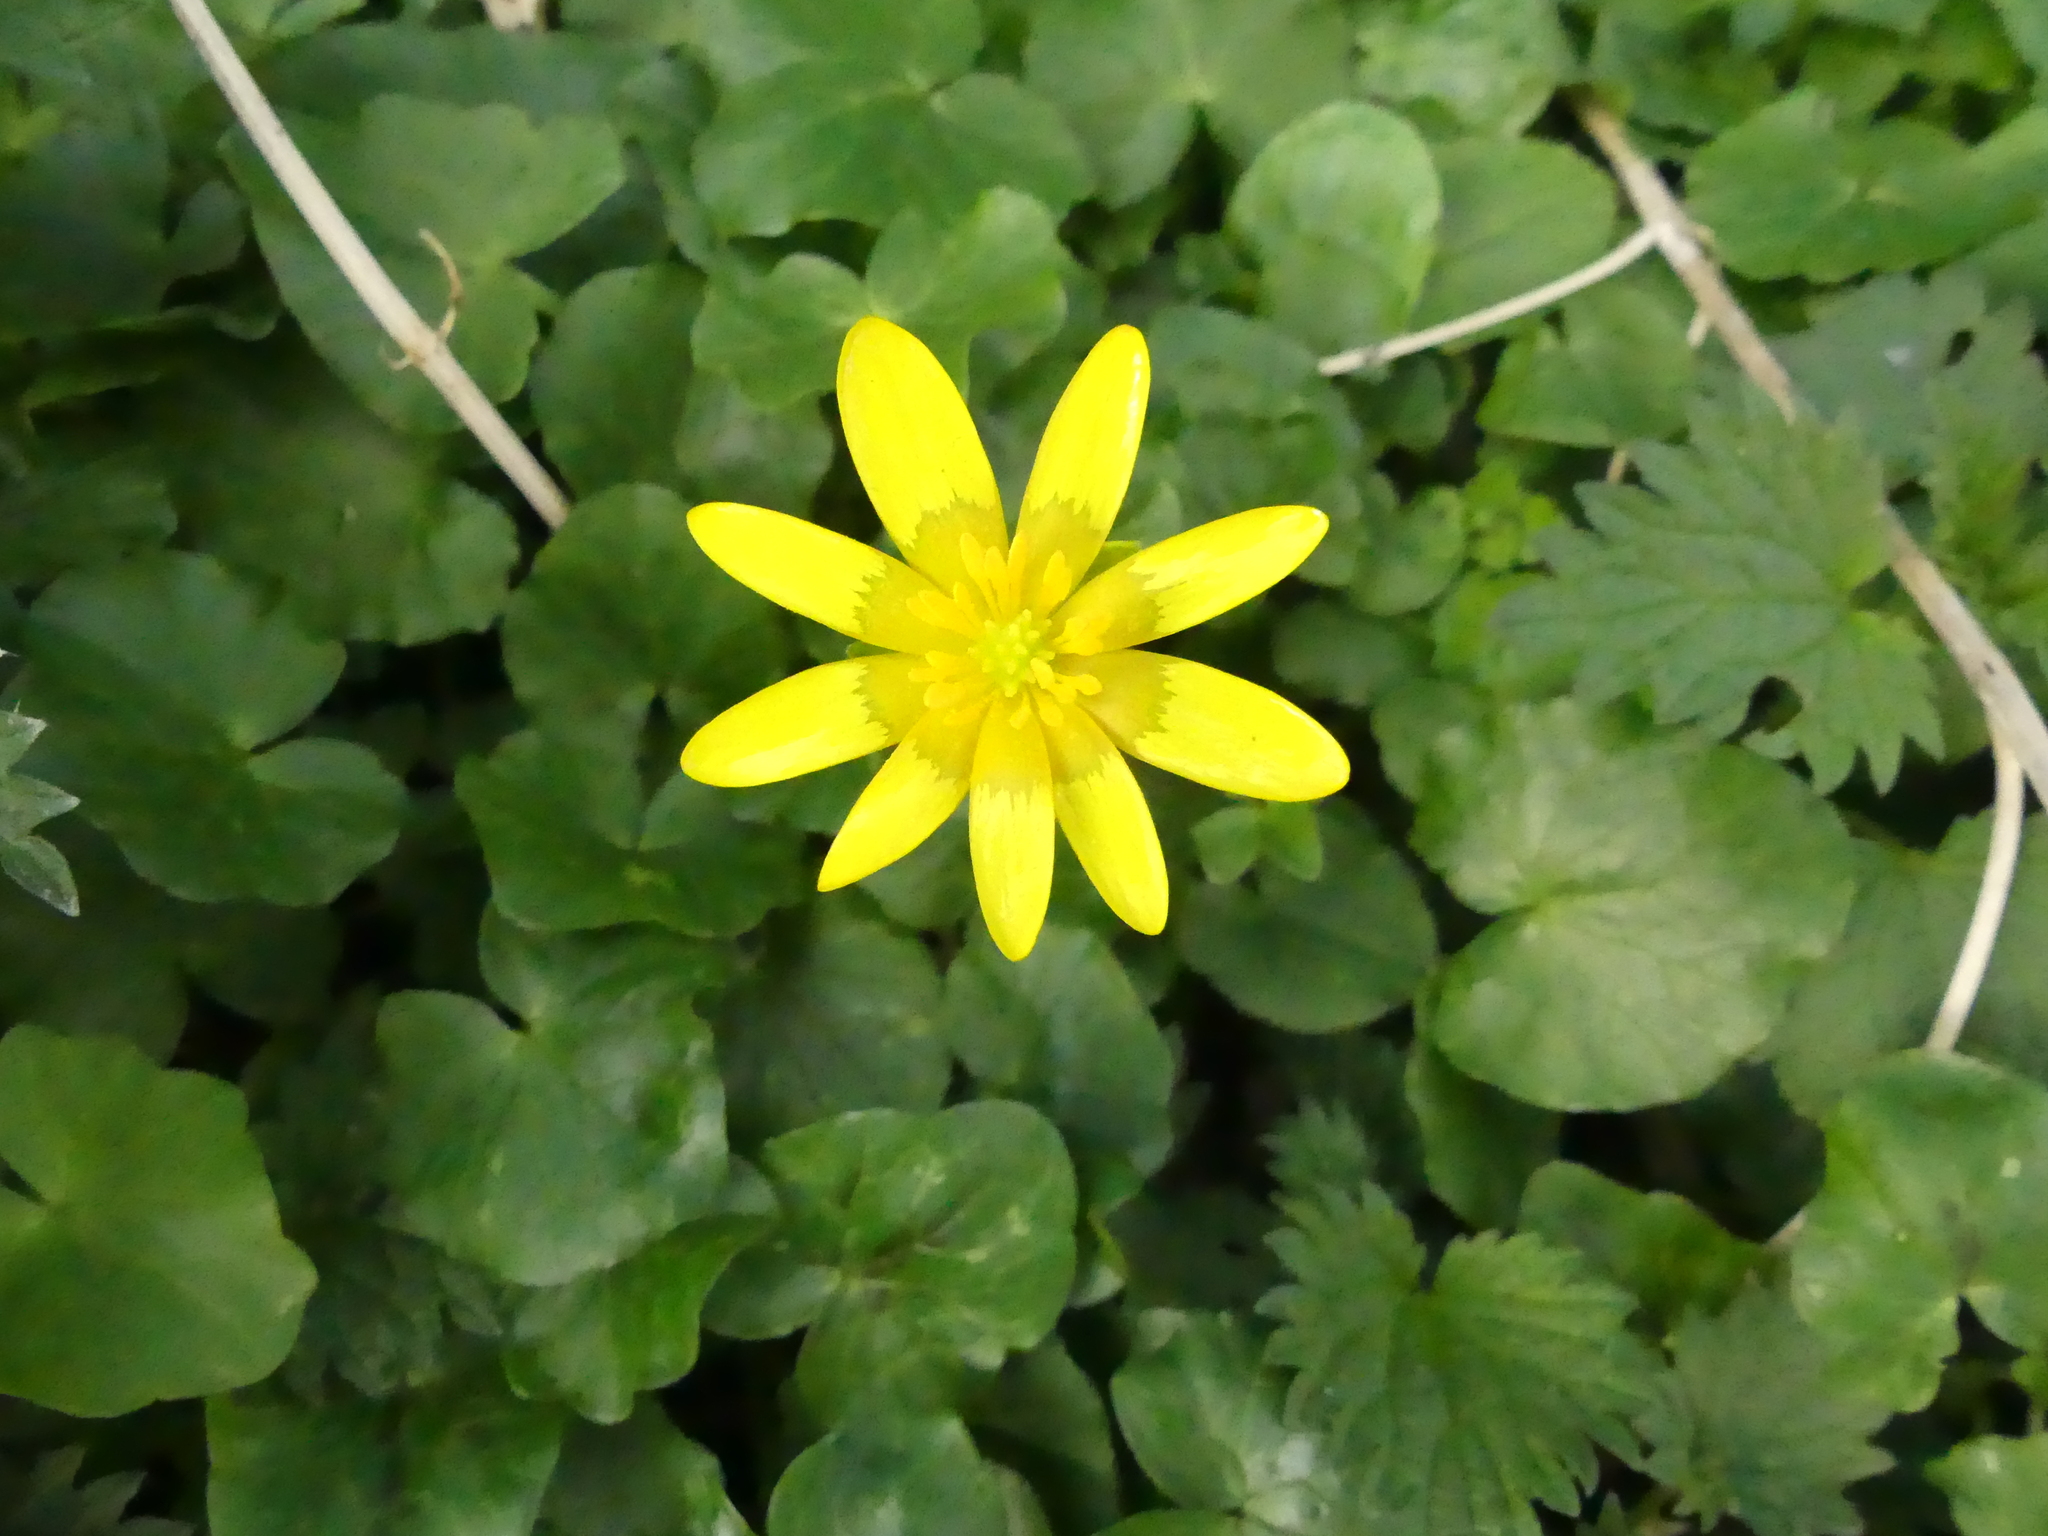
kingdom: Plantae
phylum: Tracheophyta
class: Magnoliopsida
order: Ranunculales
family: Ranunculaceae
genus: Ficaria
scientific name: Ficaria verna
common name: Lesser celandine
